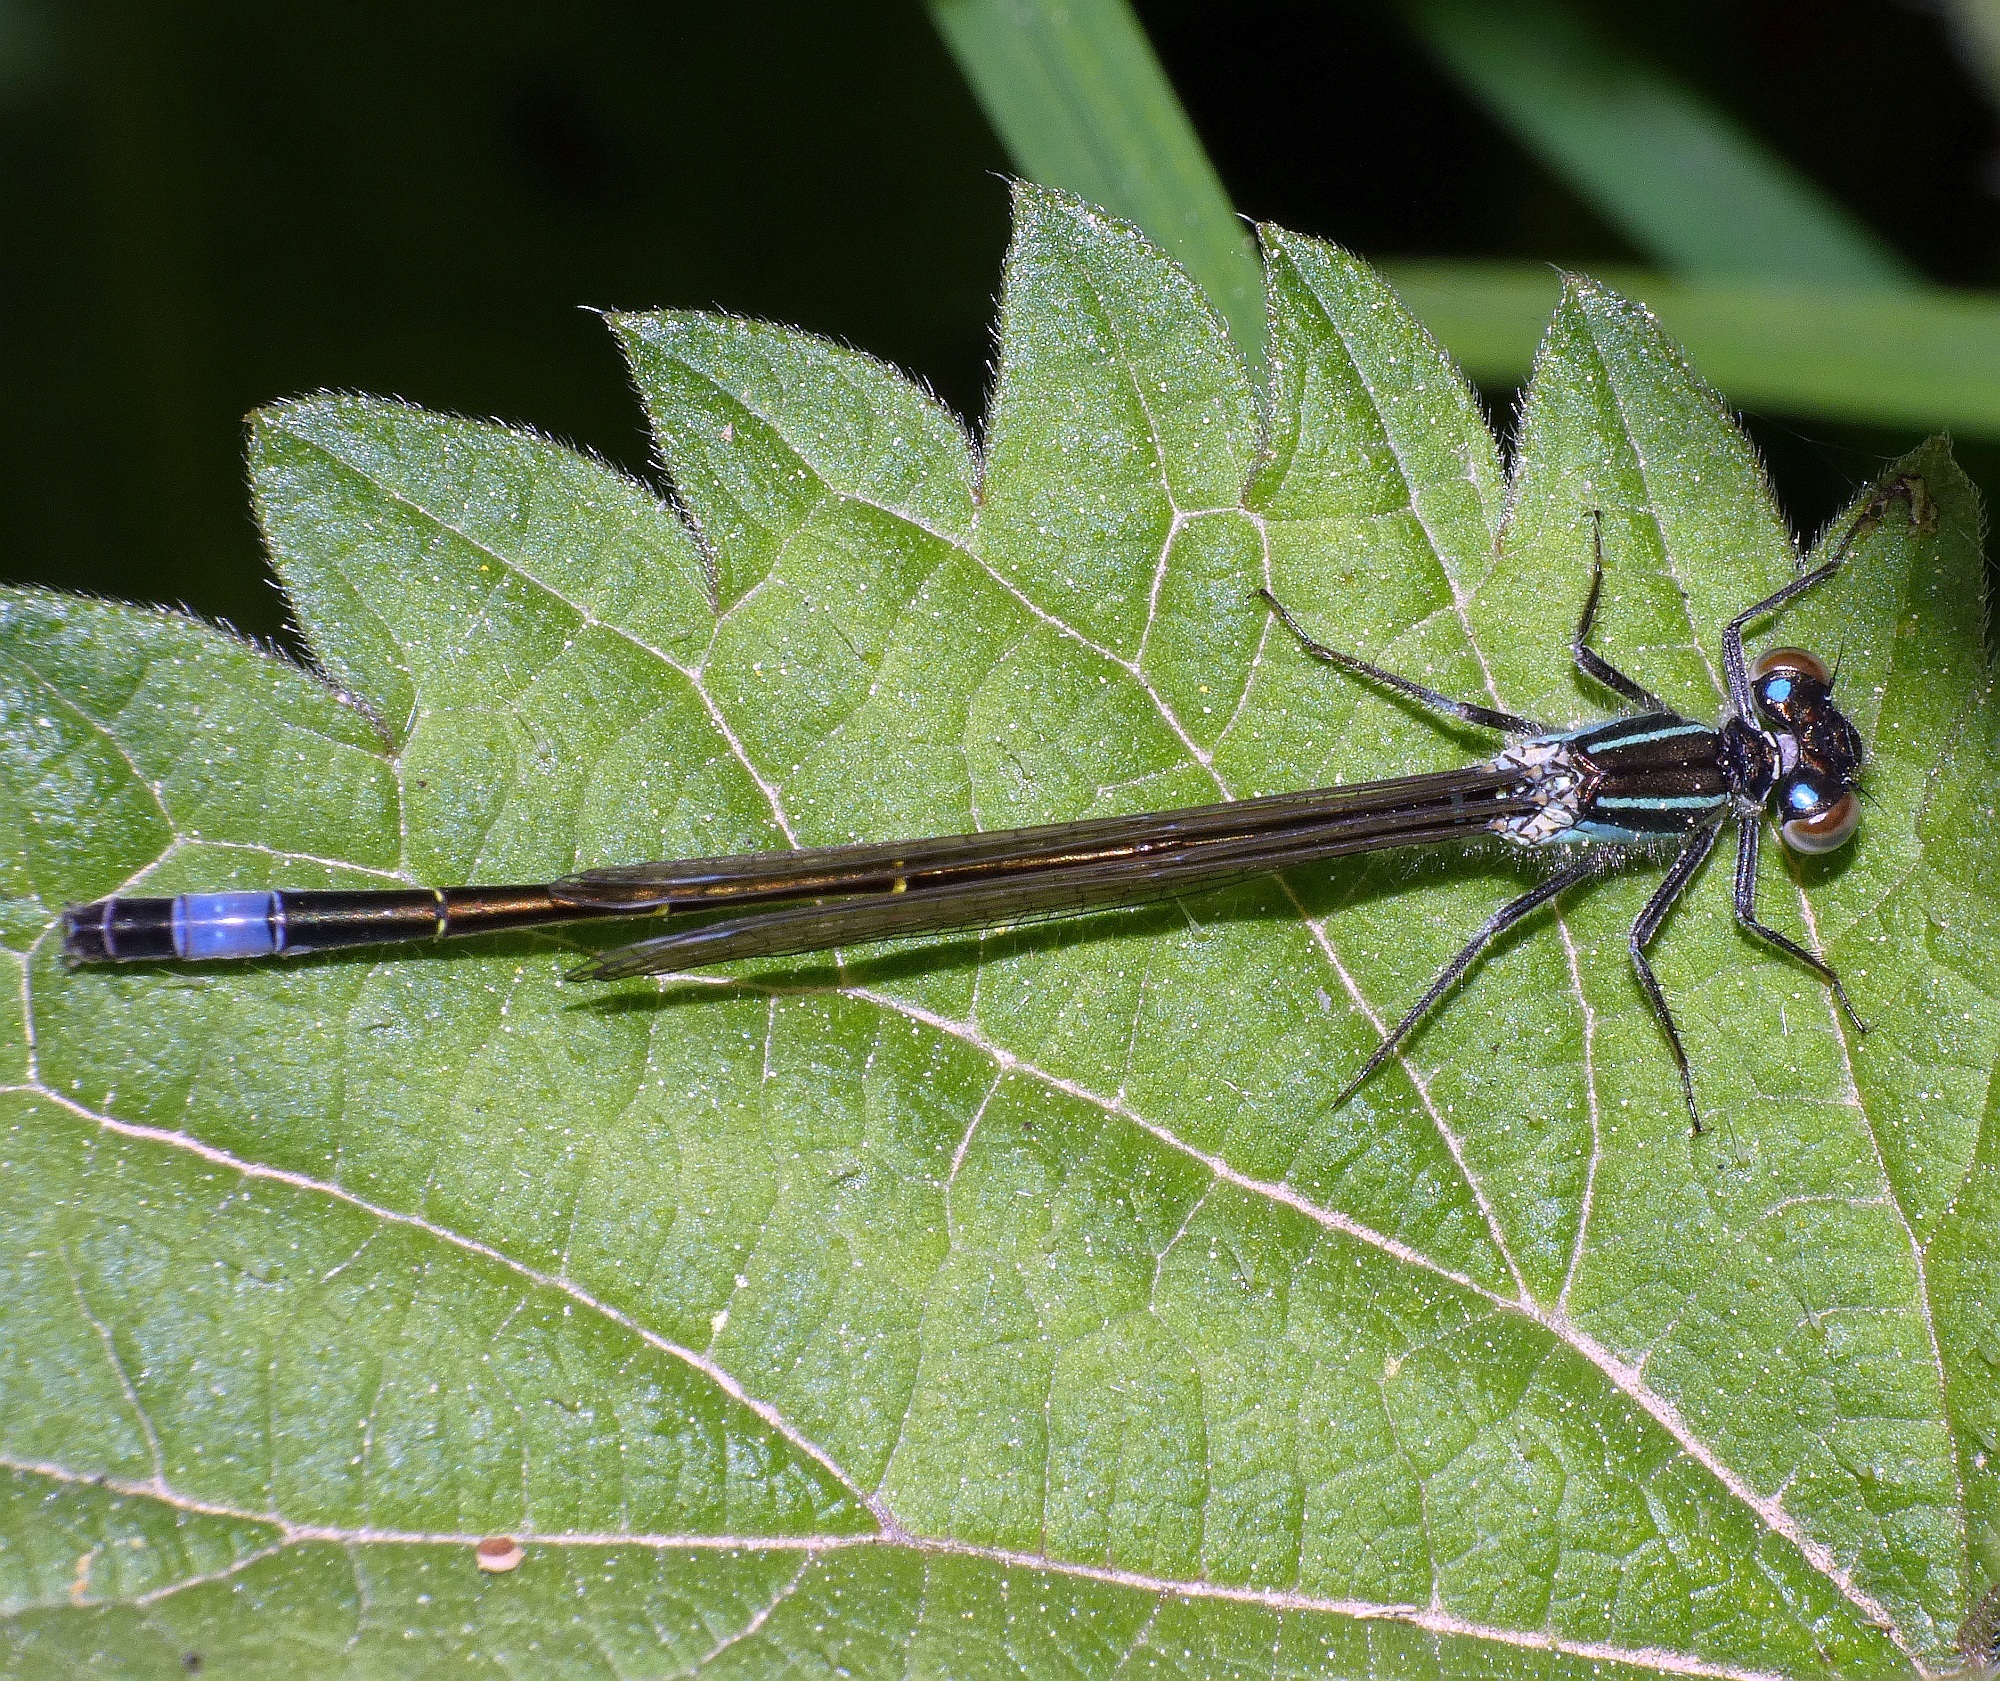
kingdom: Animalia
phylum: Arthropoda
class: Insecta
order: Odonata
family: Coenagrionidae
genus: Ischnura
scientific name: Ischnura elegans
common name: Blue-tailed damselfly
